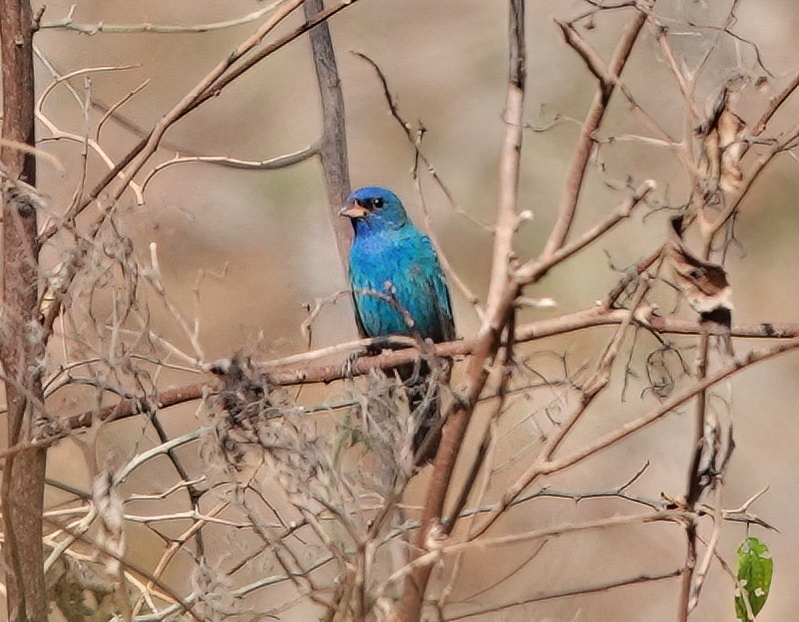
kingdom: Animalia
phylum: Chordata
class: Aves
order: Passeriformes
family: Cardinalidae
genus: Passerina
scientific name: Passerina cyanea
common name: Indigo bunting
